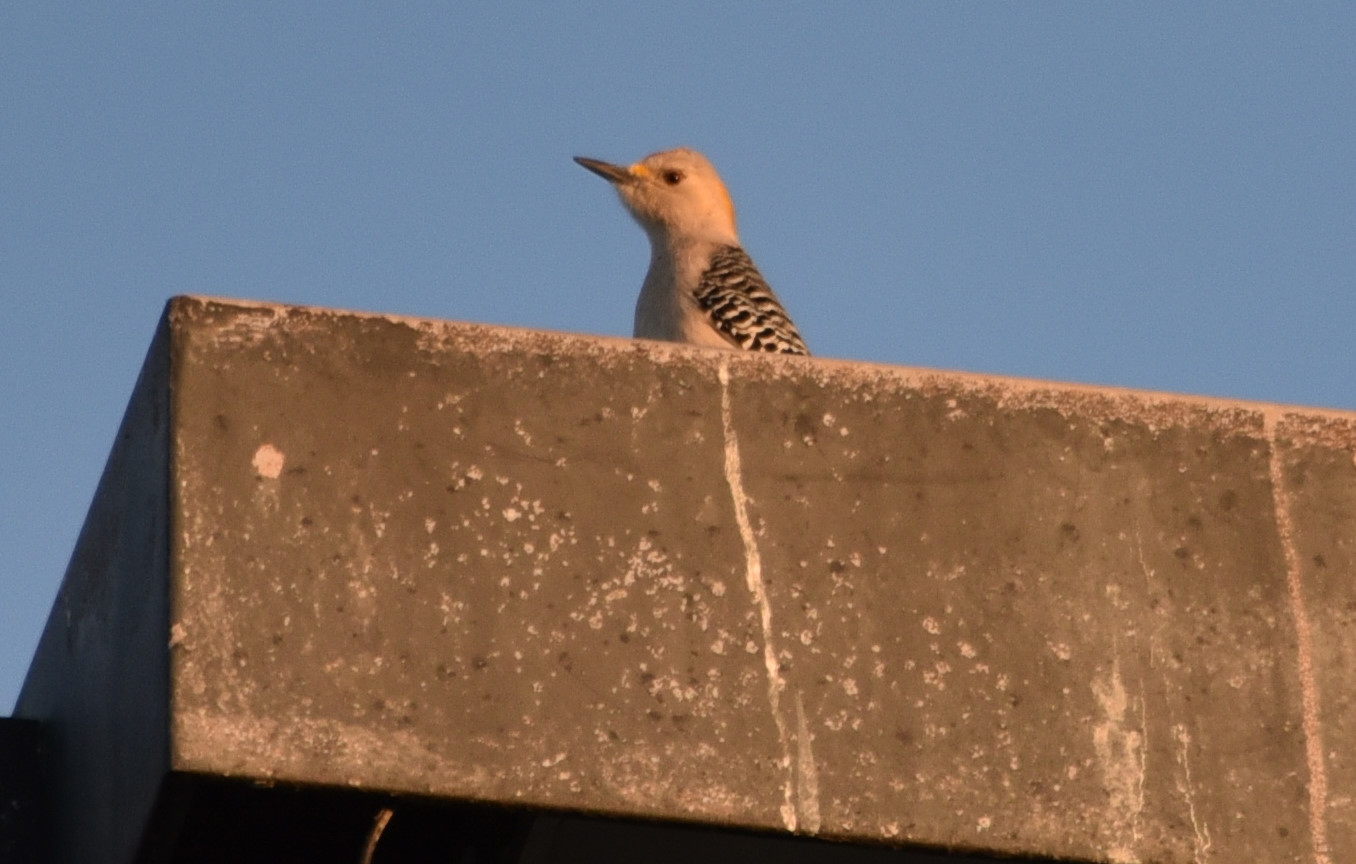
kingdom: Animalia
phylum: Chordata
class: Aves
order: Piciformes
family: Picidae
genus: Melanerpes
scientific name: Melanerpes aurifrons
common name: Golden-fronted woodpecker
